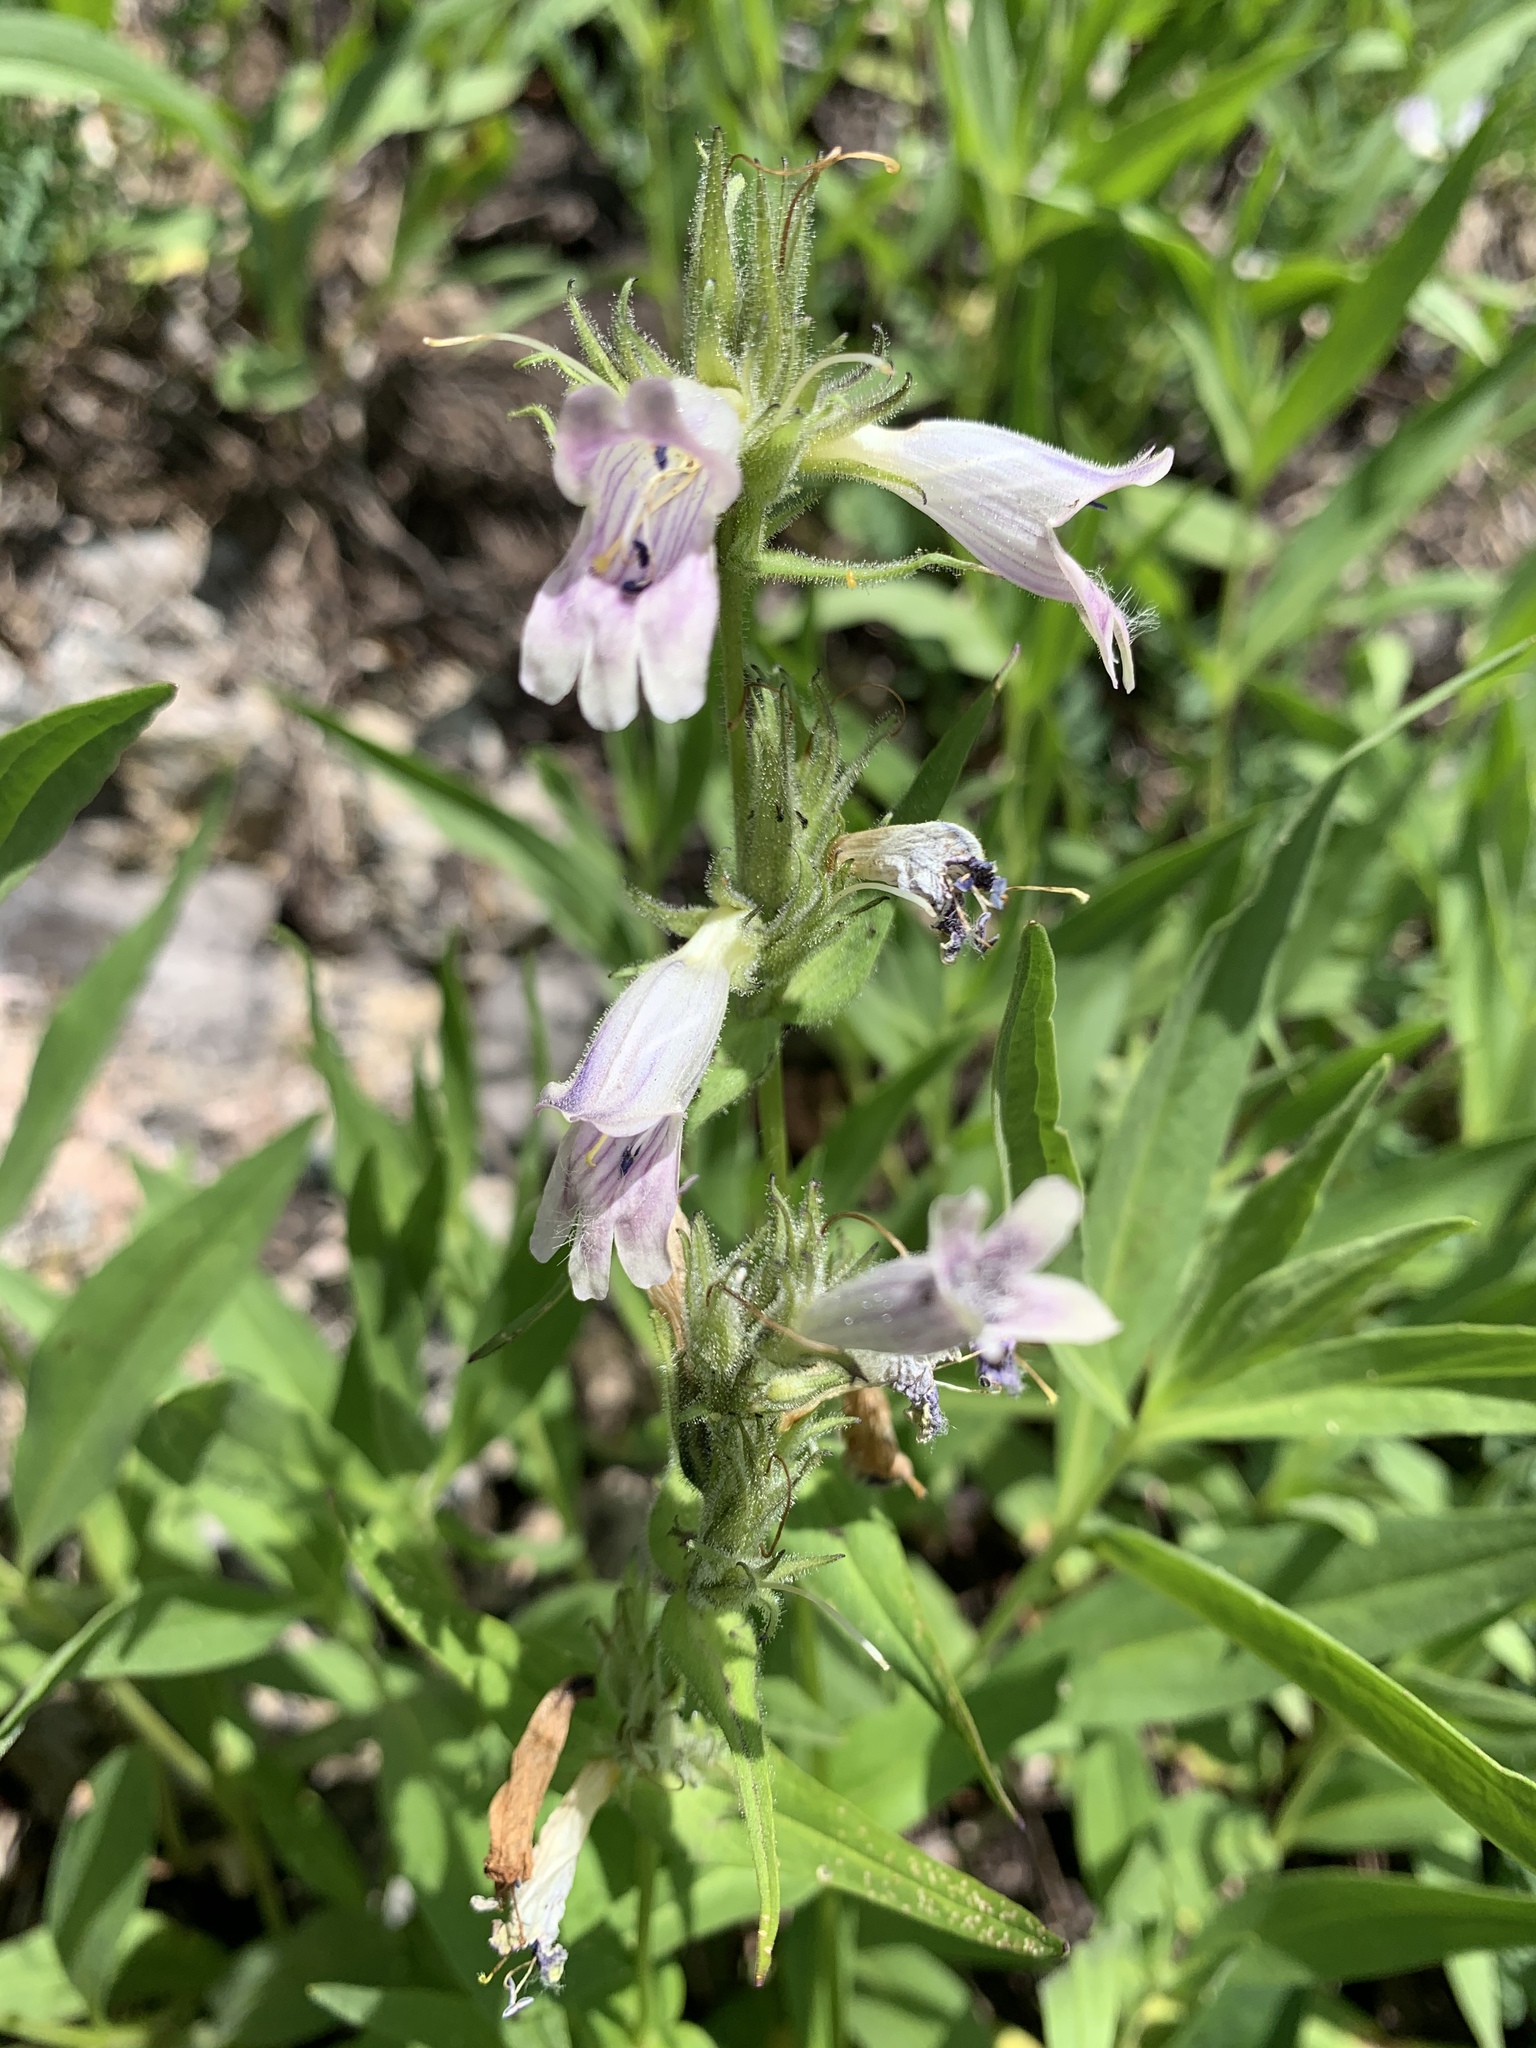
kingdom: Plantae
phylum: Tracheophyta
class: Magnoliopsida
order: Lamiales
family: Plantaginaceae
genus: Penstemon
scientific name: Penstemon whippleanus
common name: Whipple's penstemon
